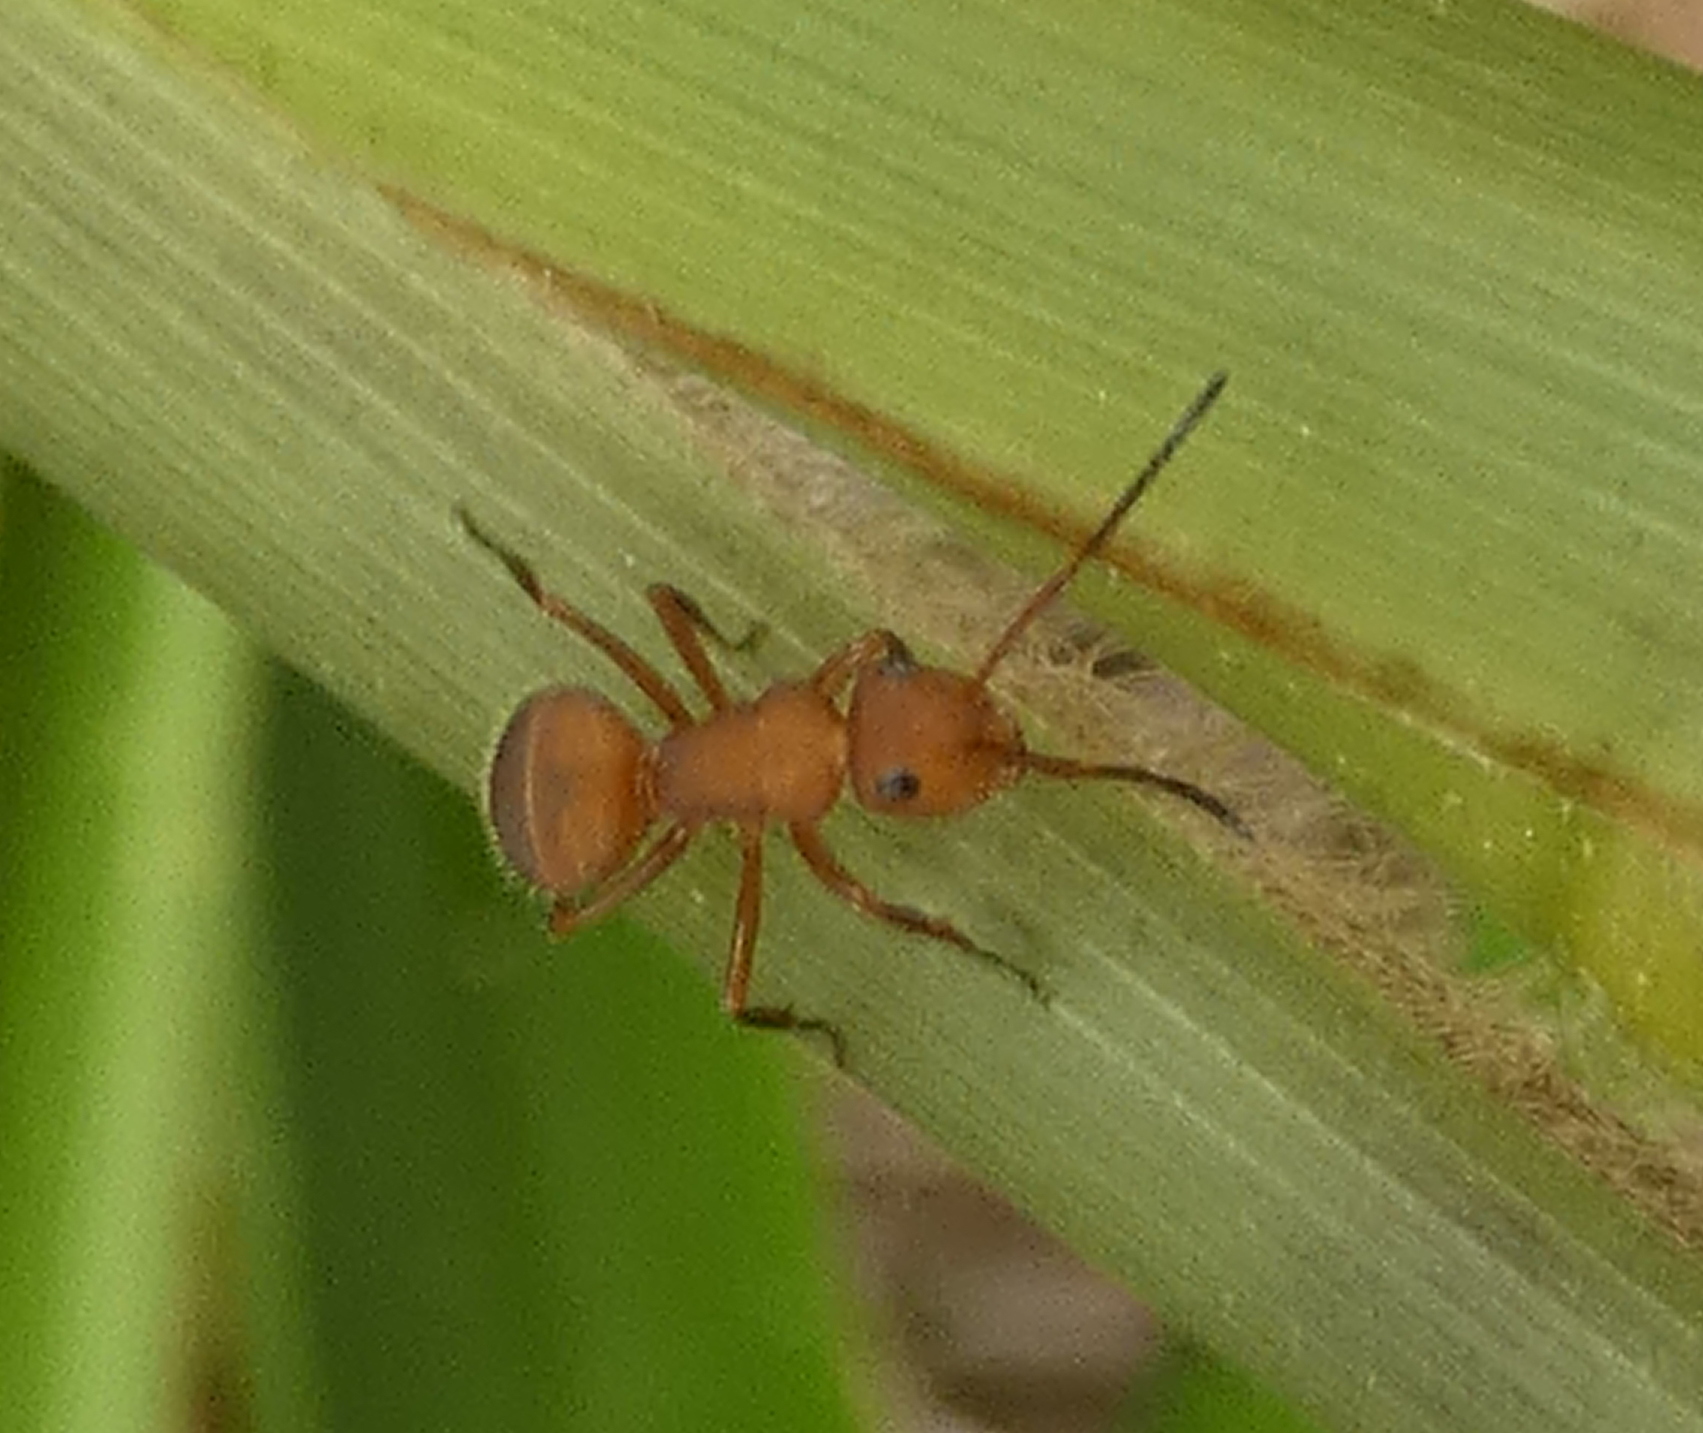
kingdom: Animalia
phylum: Arthropoda
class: Insecta
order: Hymenoptera
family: Formicidae
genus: Camponotus
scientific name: Camponotus rectangularis
